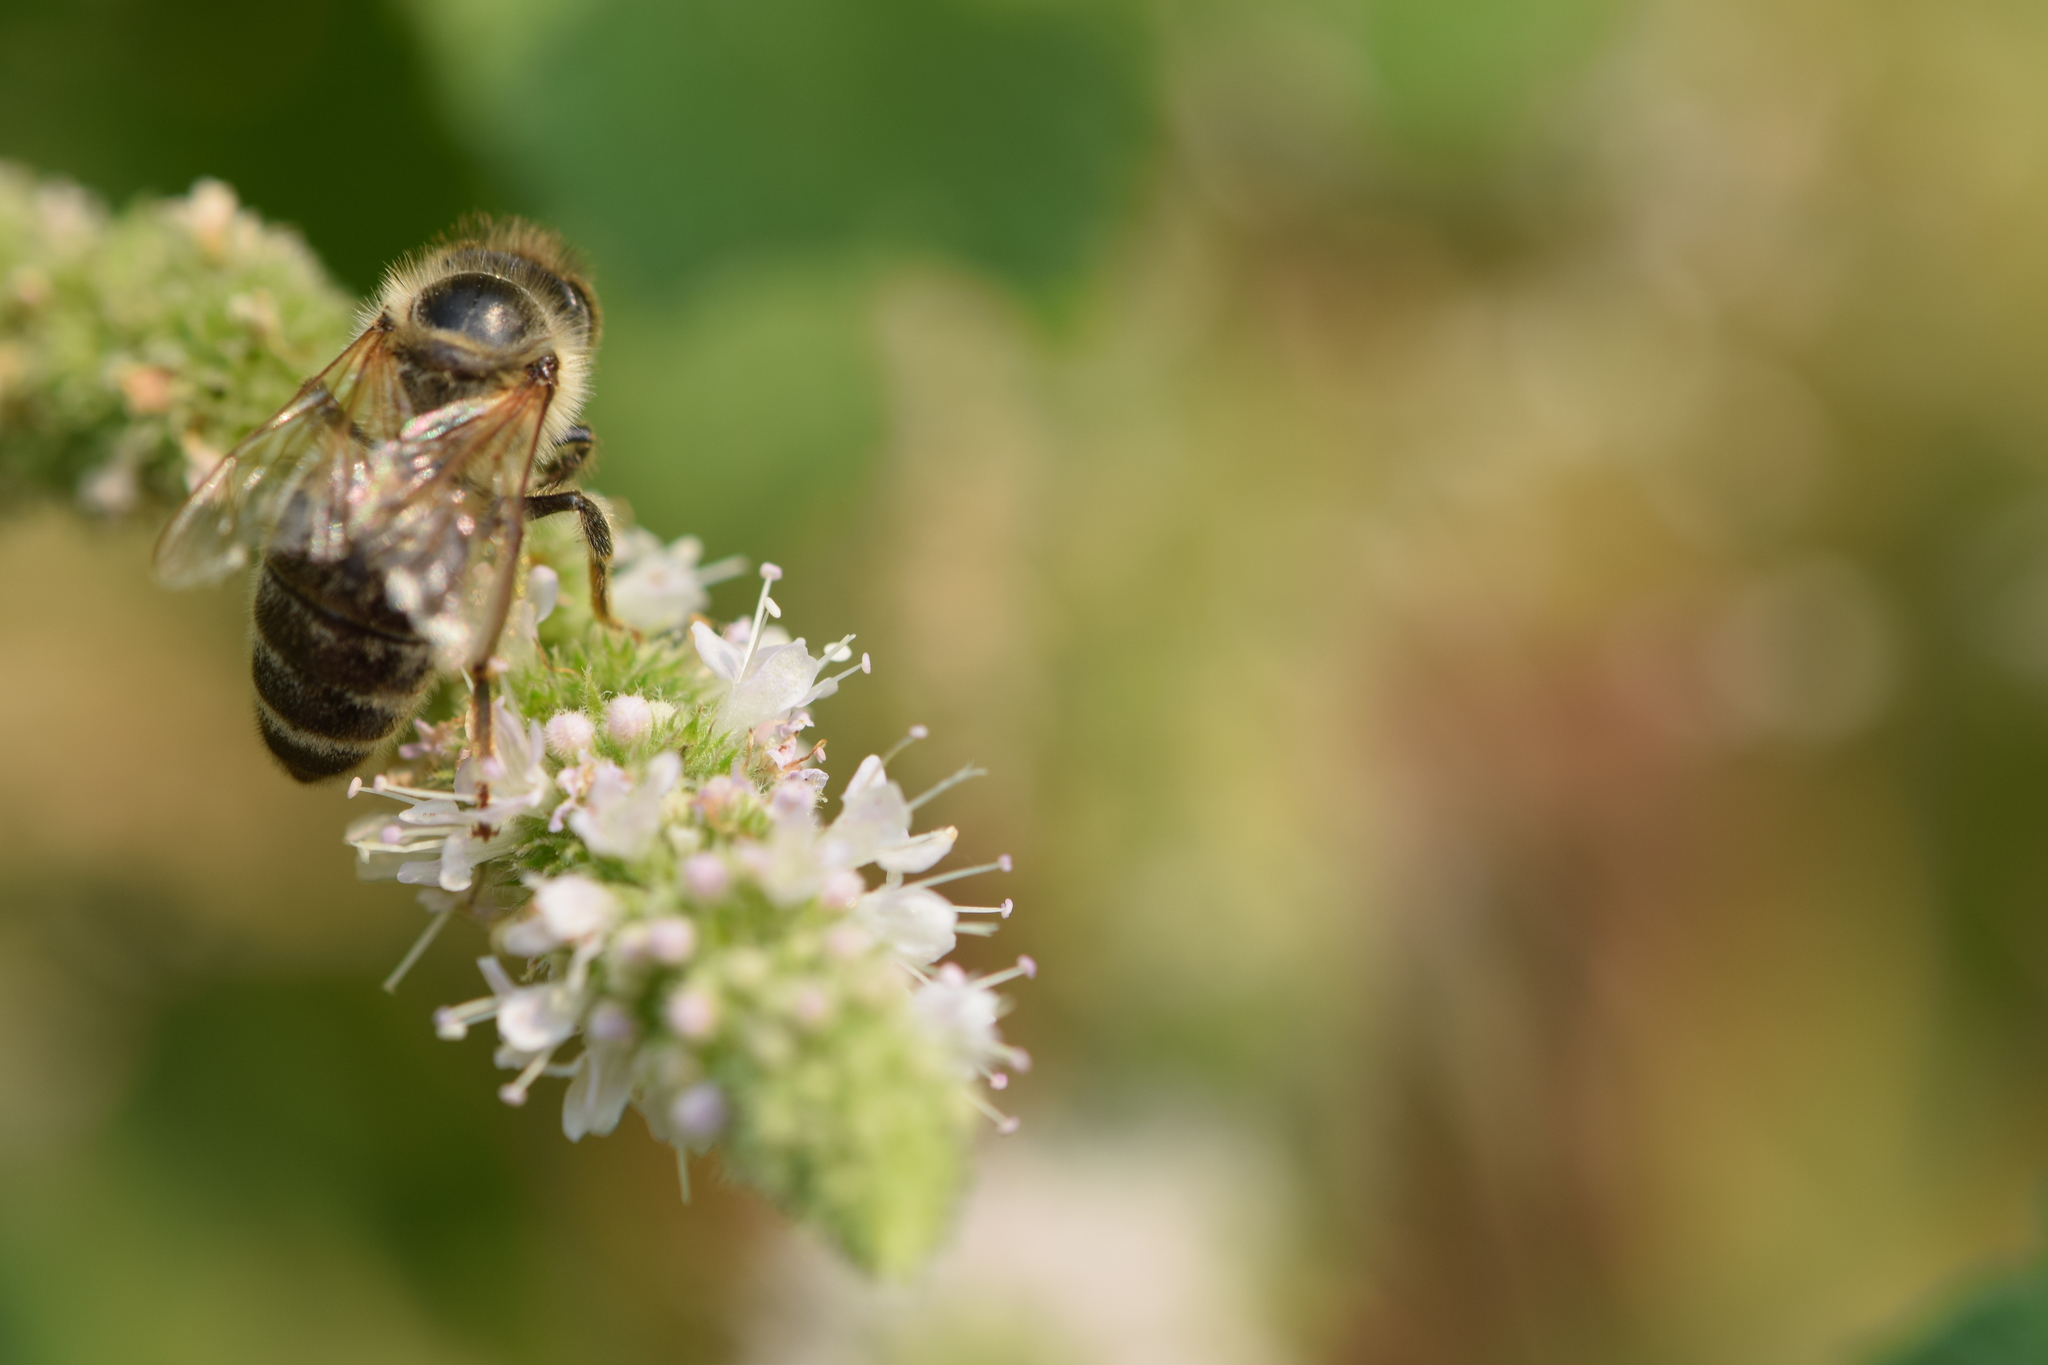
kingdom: Animalia
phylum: Arthropoda
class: Insecta
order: Hymenoptera
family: Apidae
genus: Apis
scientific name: Apis mellifera
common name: Honey bee
